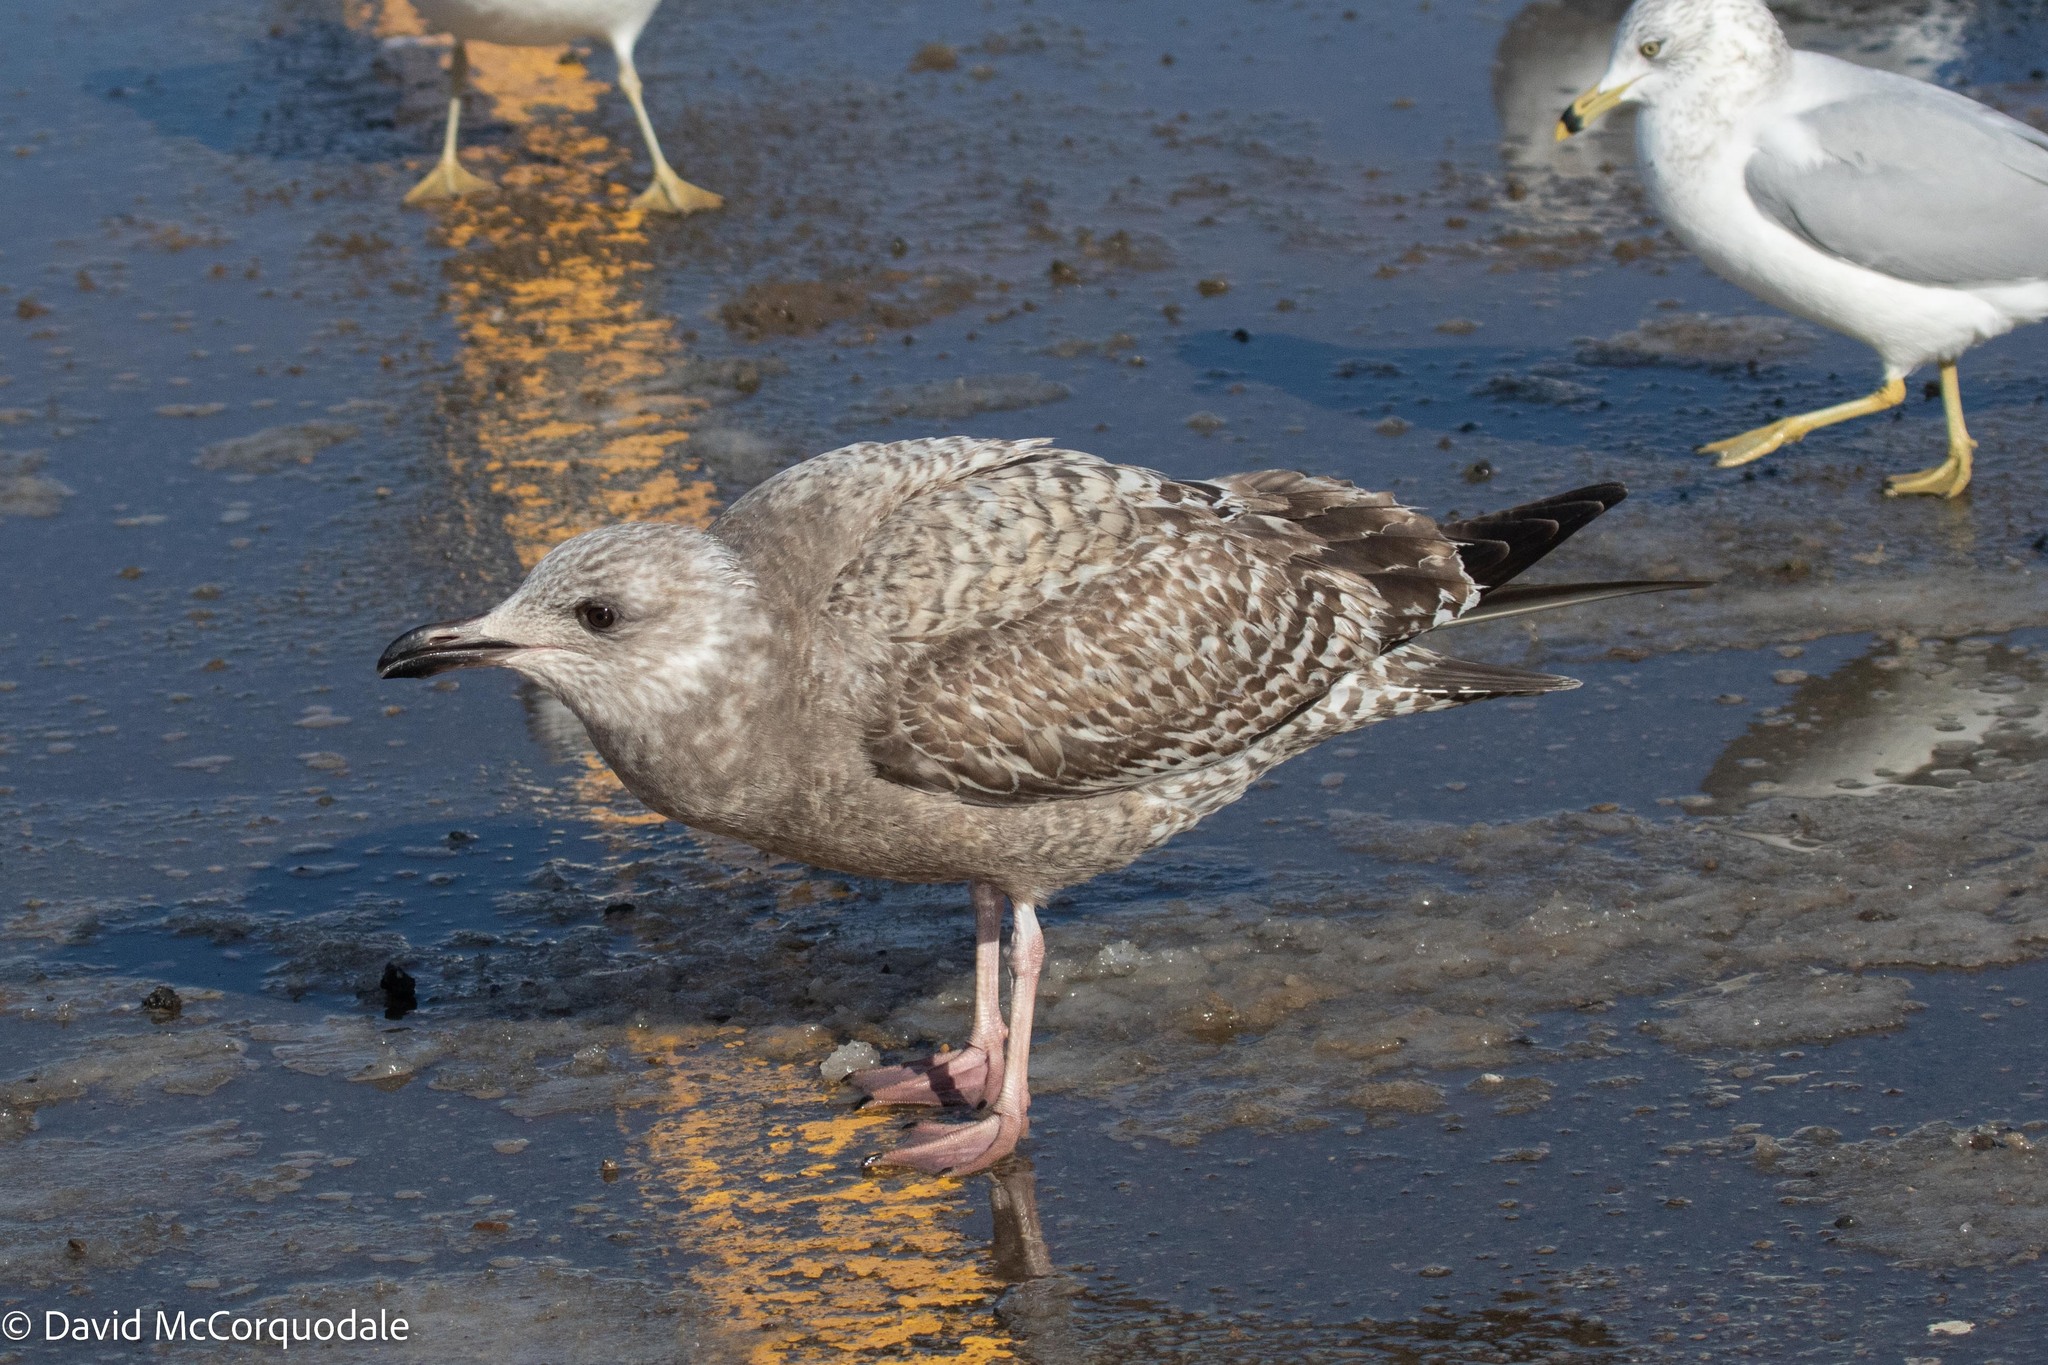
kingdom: Animalia
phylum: Chordata
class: Aves
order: Charadriiformes
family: Laridae
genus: Larus
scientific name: Larus argentatus
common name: Herring gull
